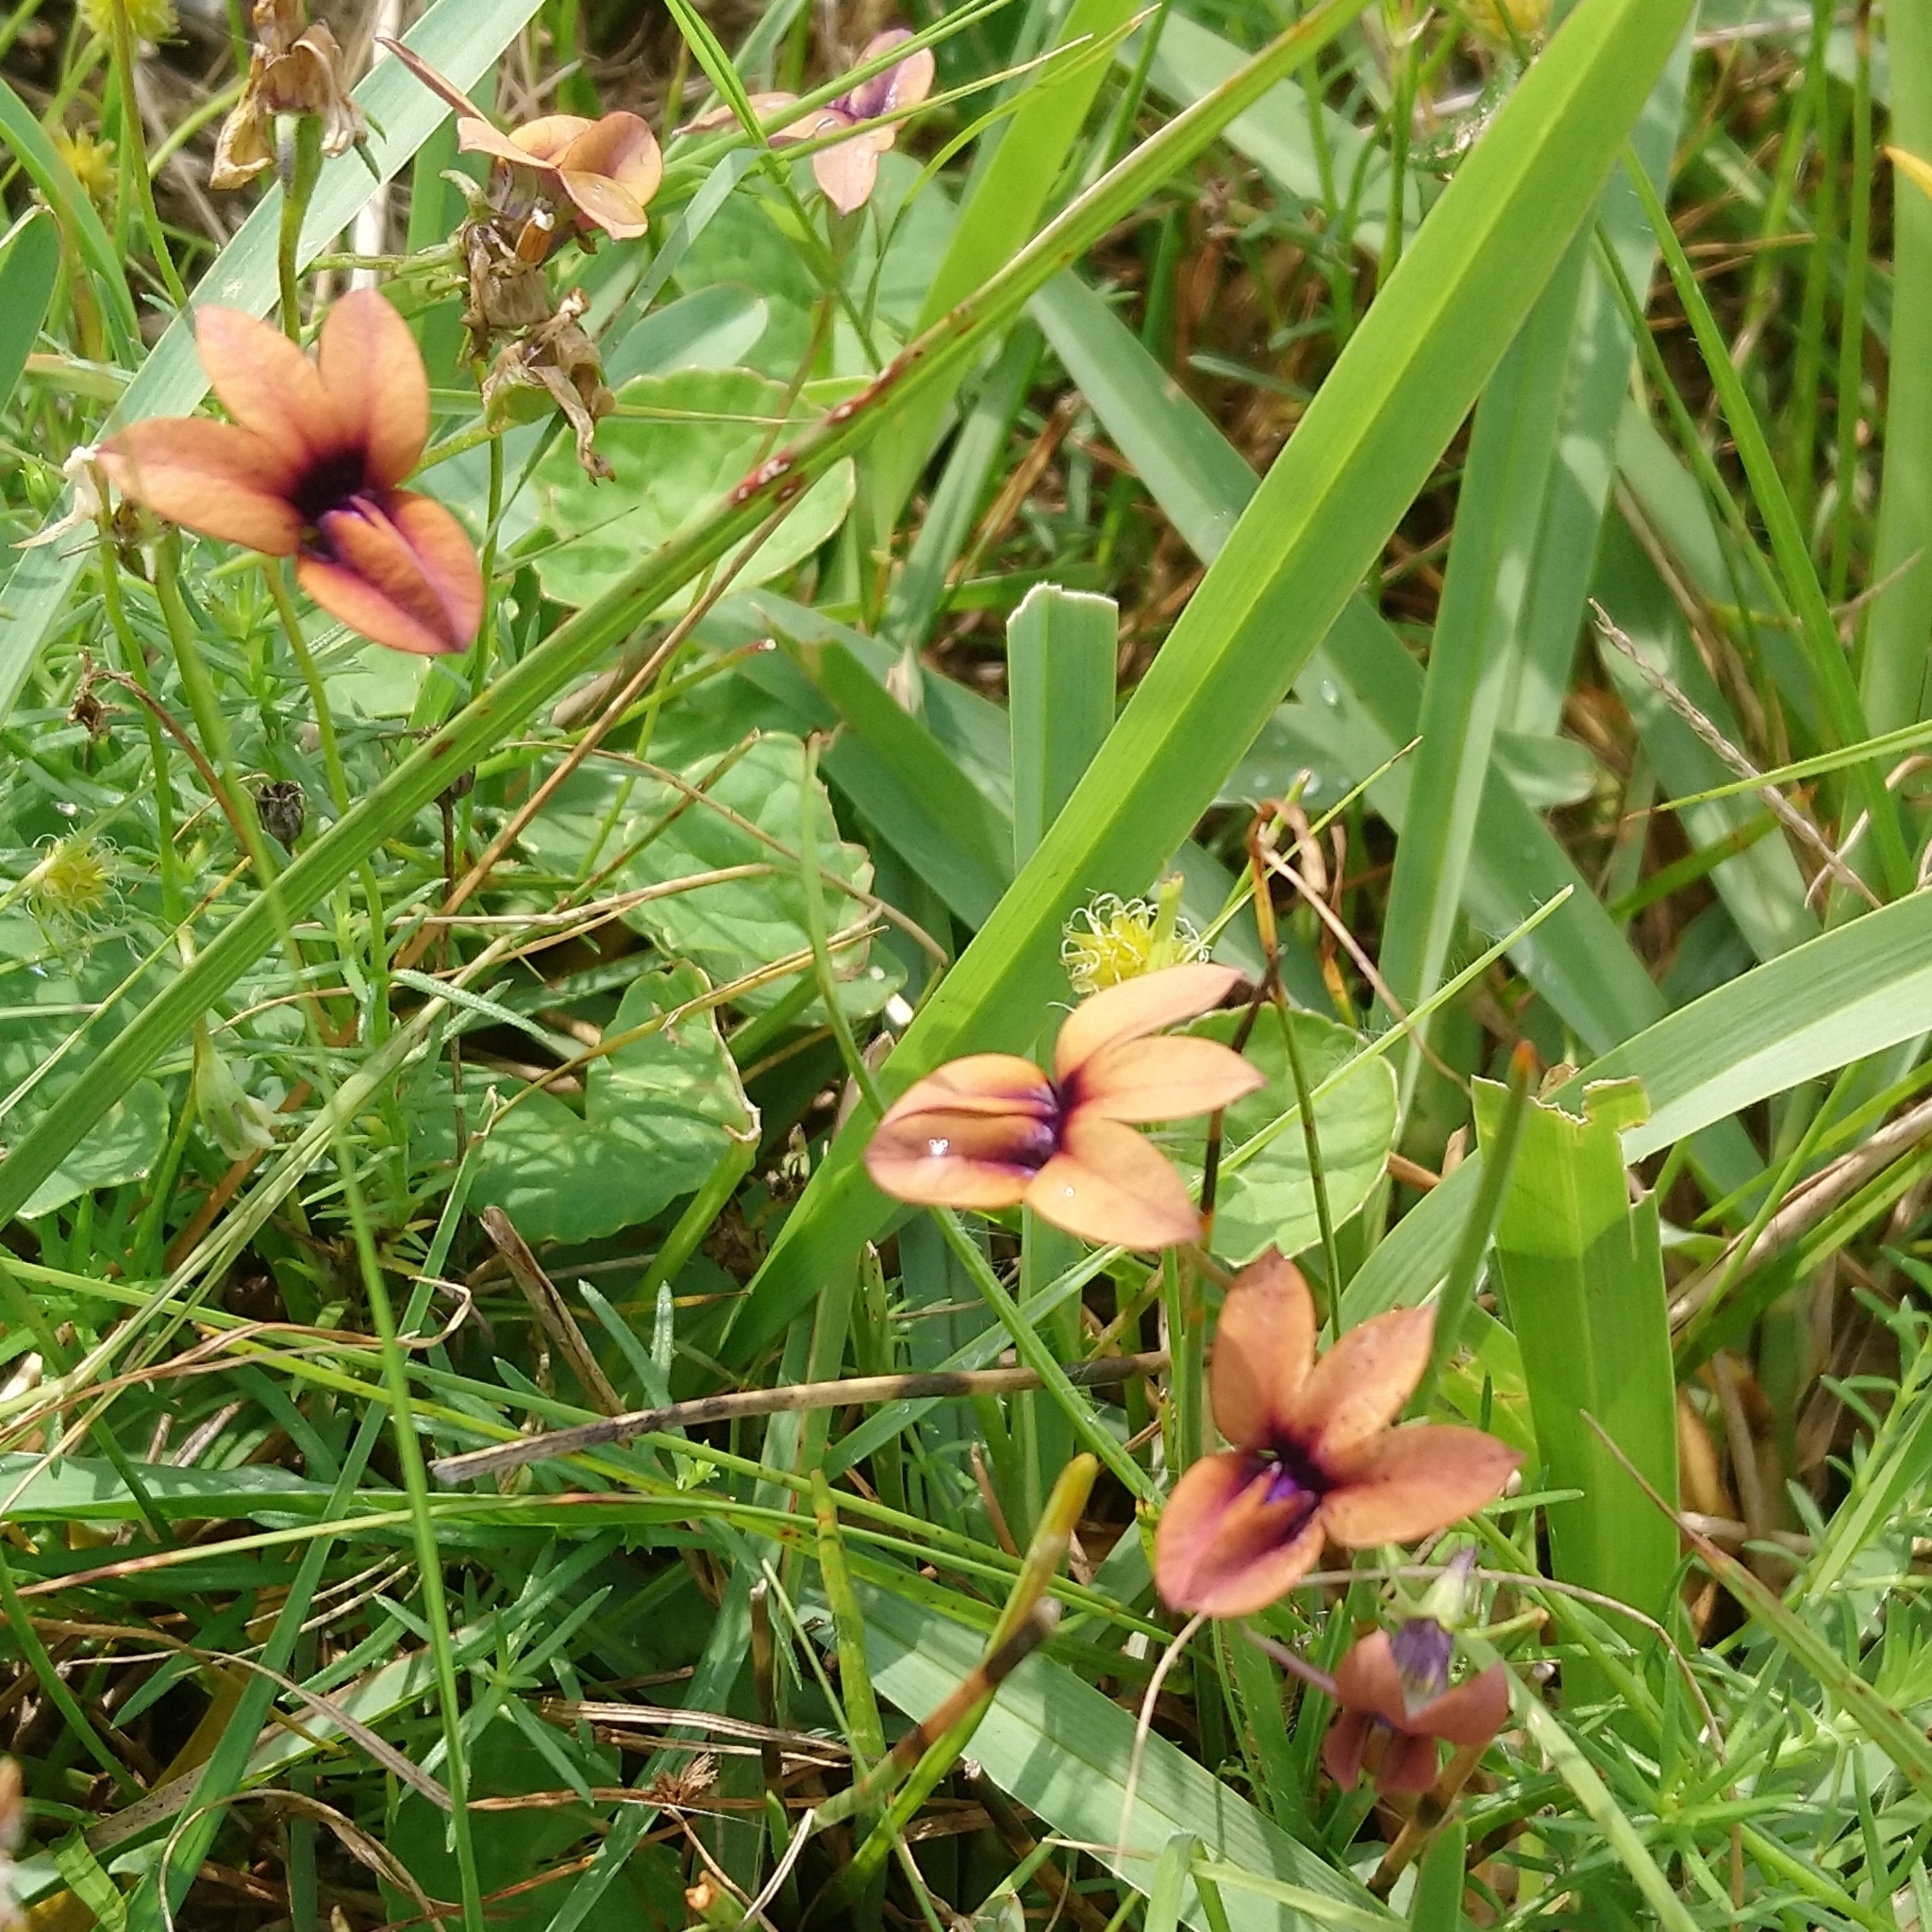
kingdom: Plantae
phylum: Tracheophyta
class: Magnoliopsida
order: Asterales
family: Campanulaceae
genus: Monopsis
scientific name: Monopsis unidentata
